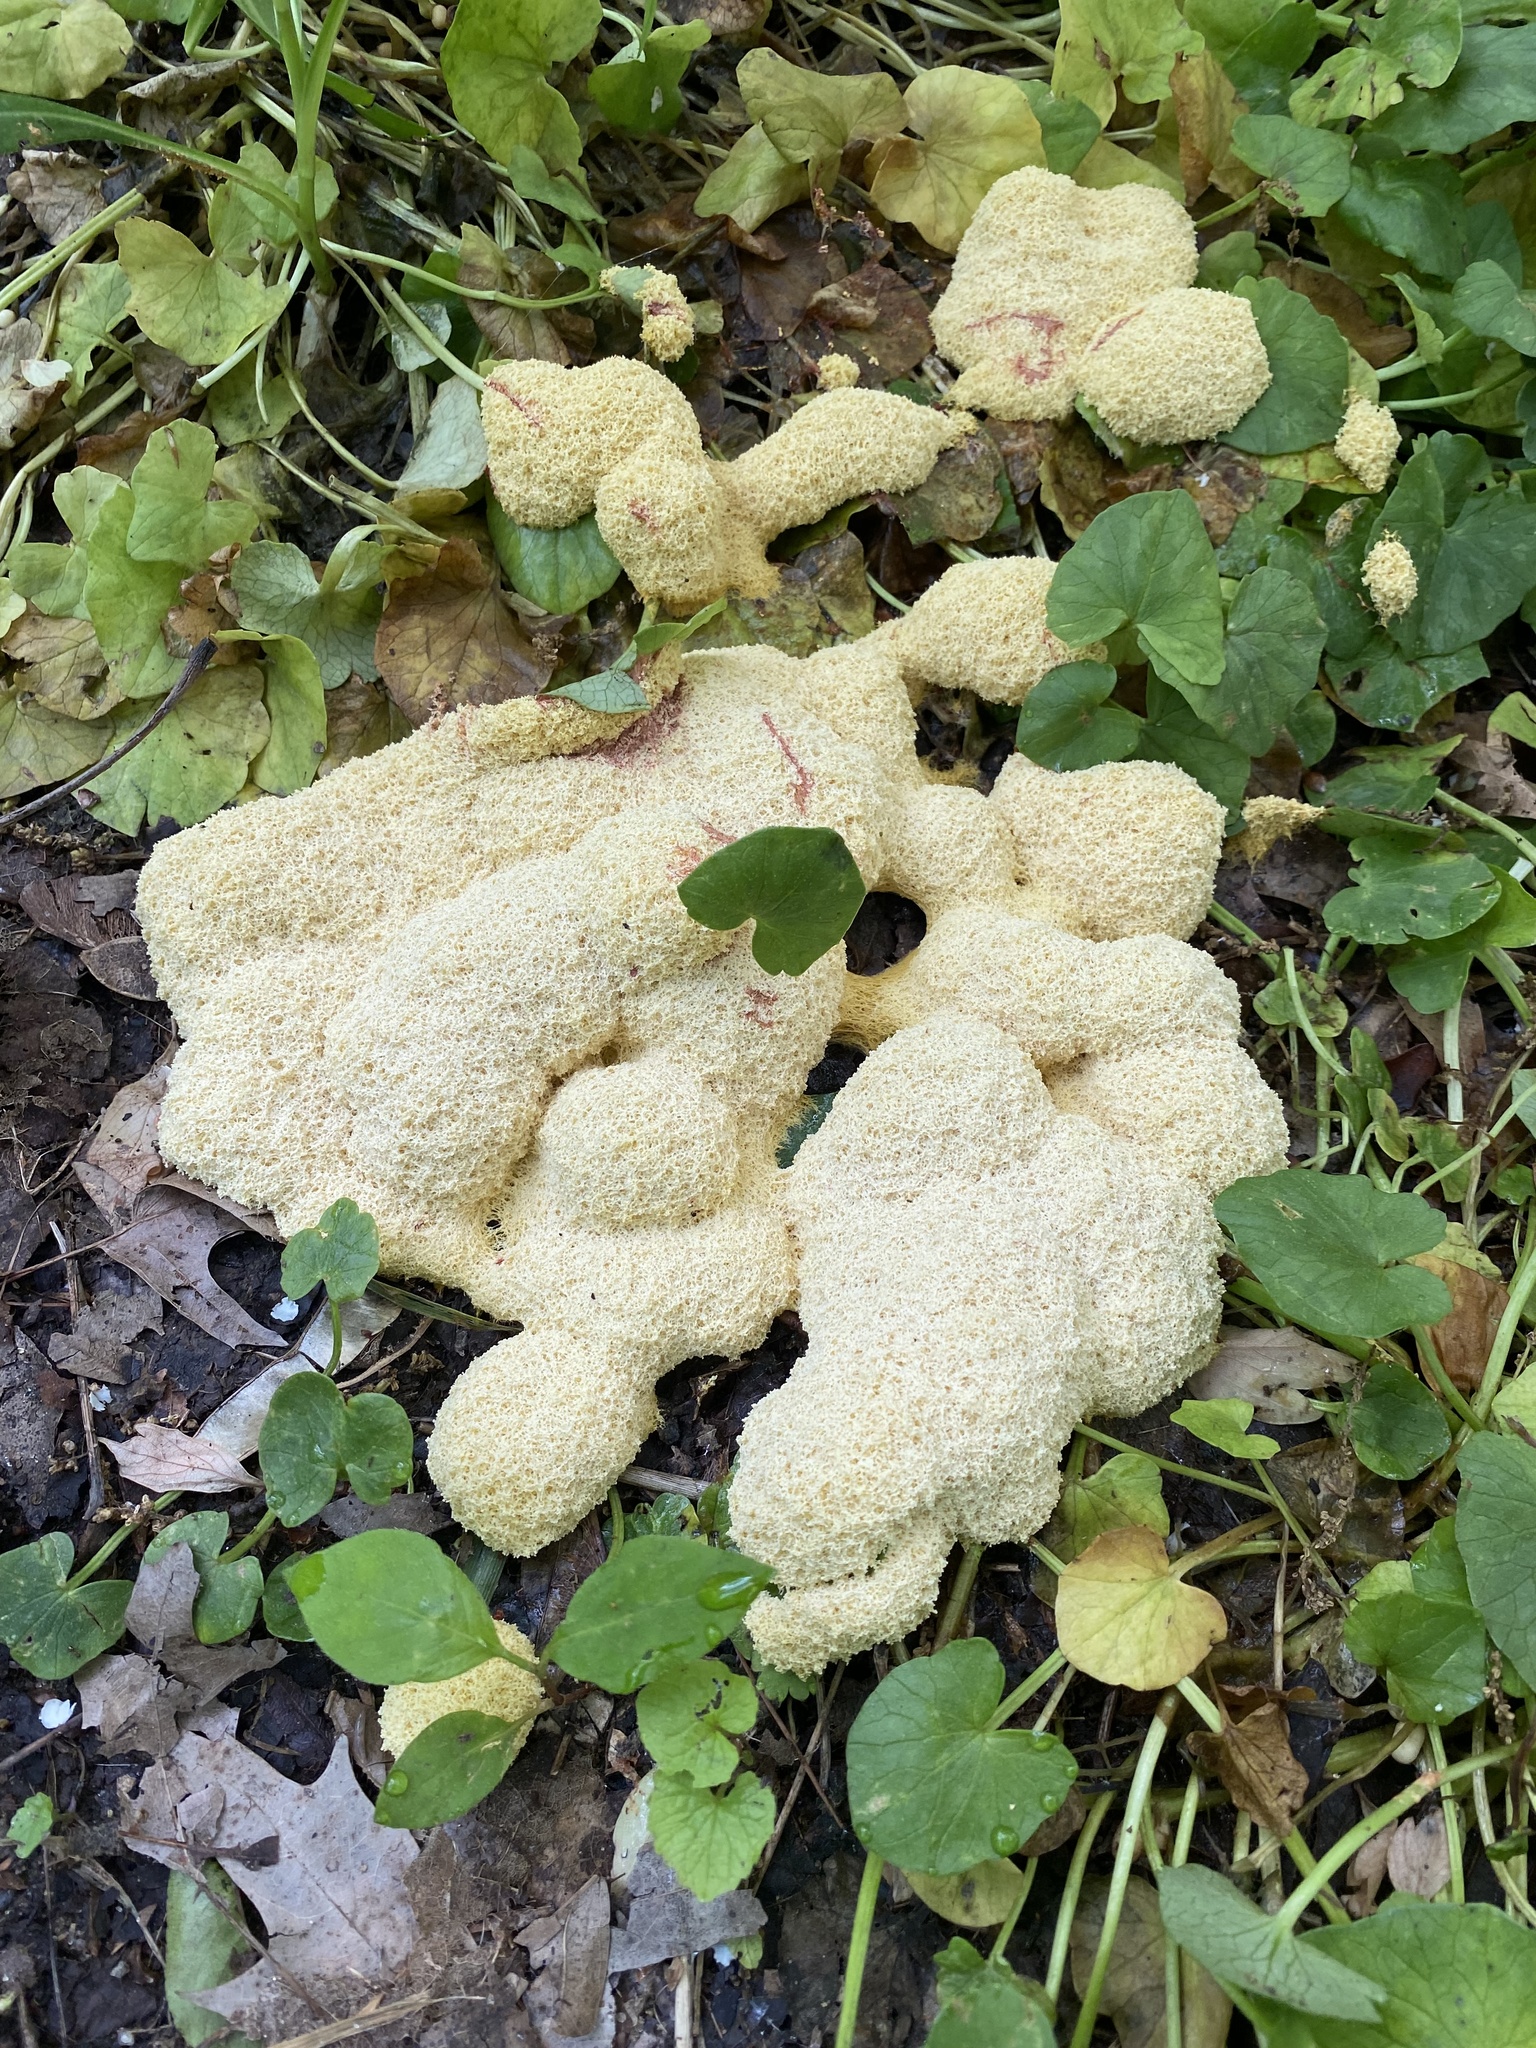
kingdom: Protozoa
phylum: Mycetozoa
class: Myxomycetes
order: Physarales
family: Physaraceae
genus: Fuligo
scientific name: Fuligo septica
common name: Dog vomit slime mold
